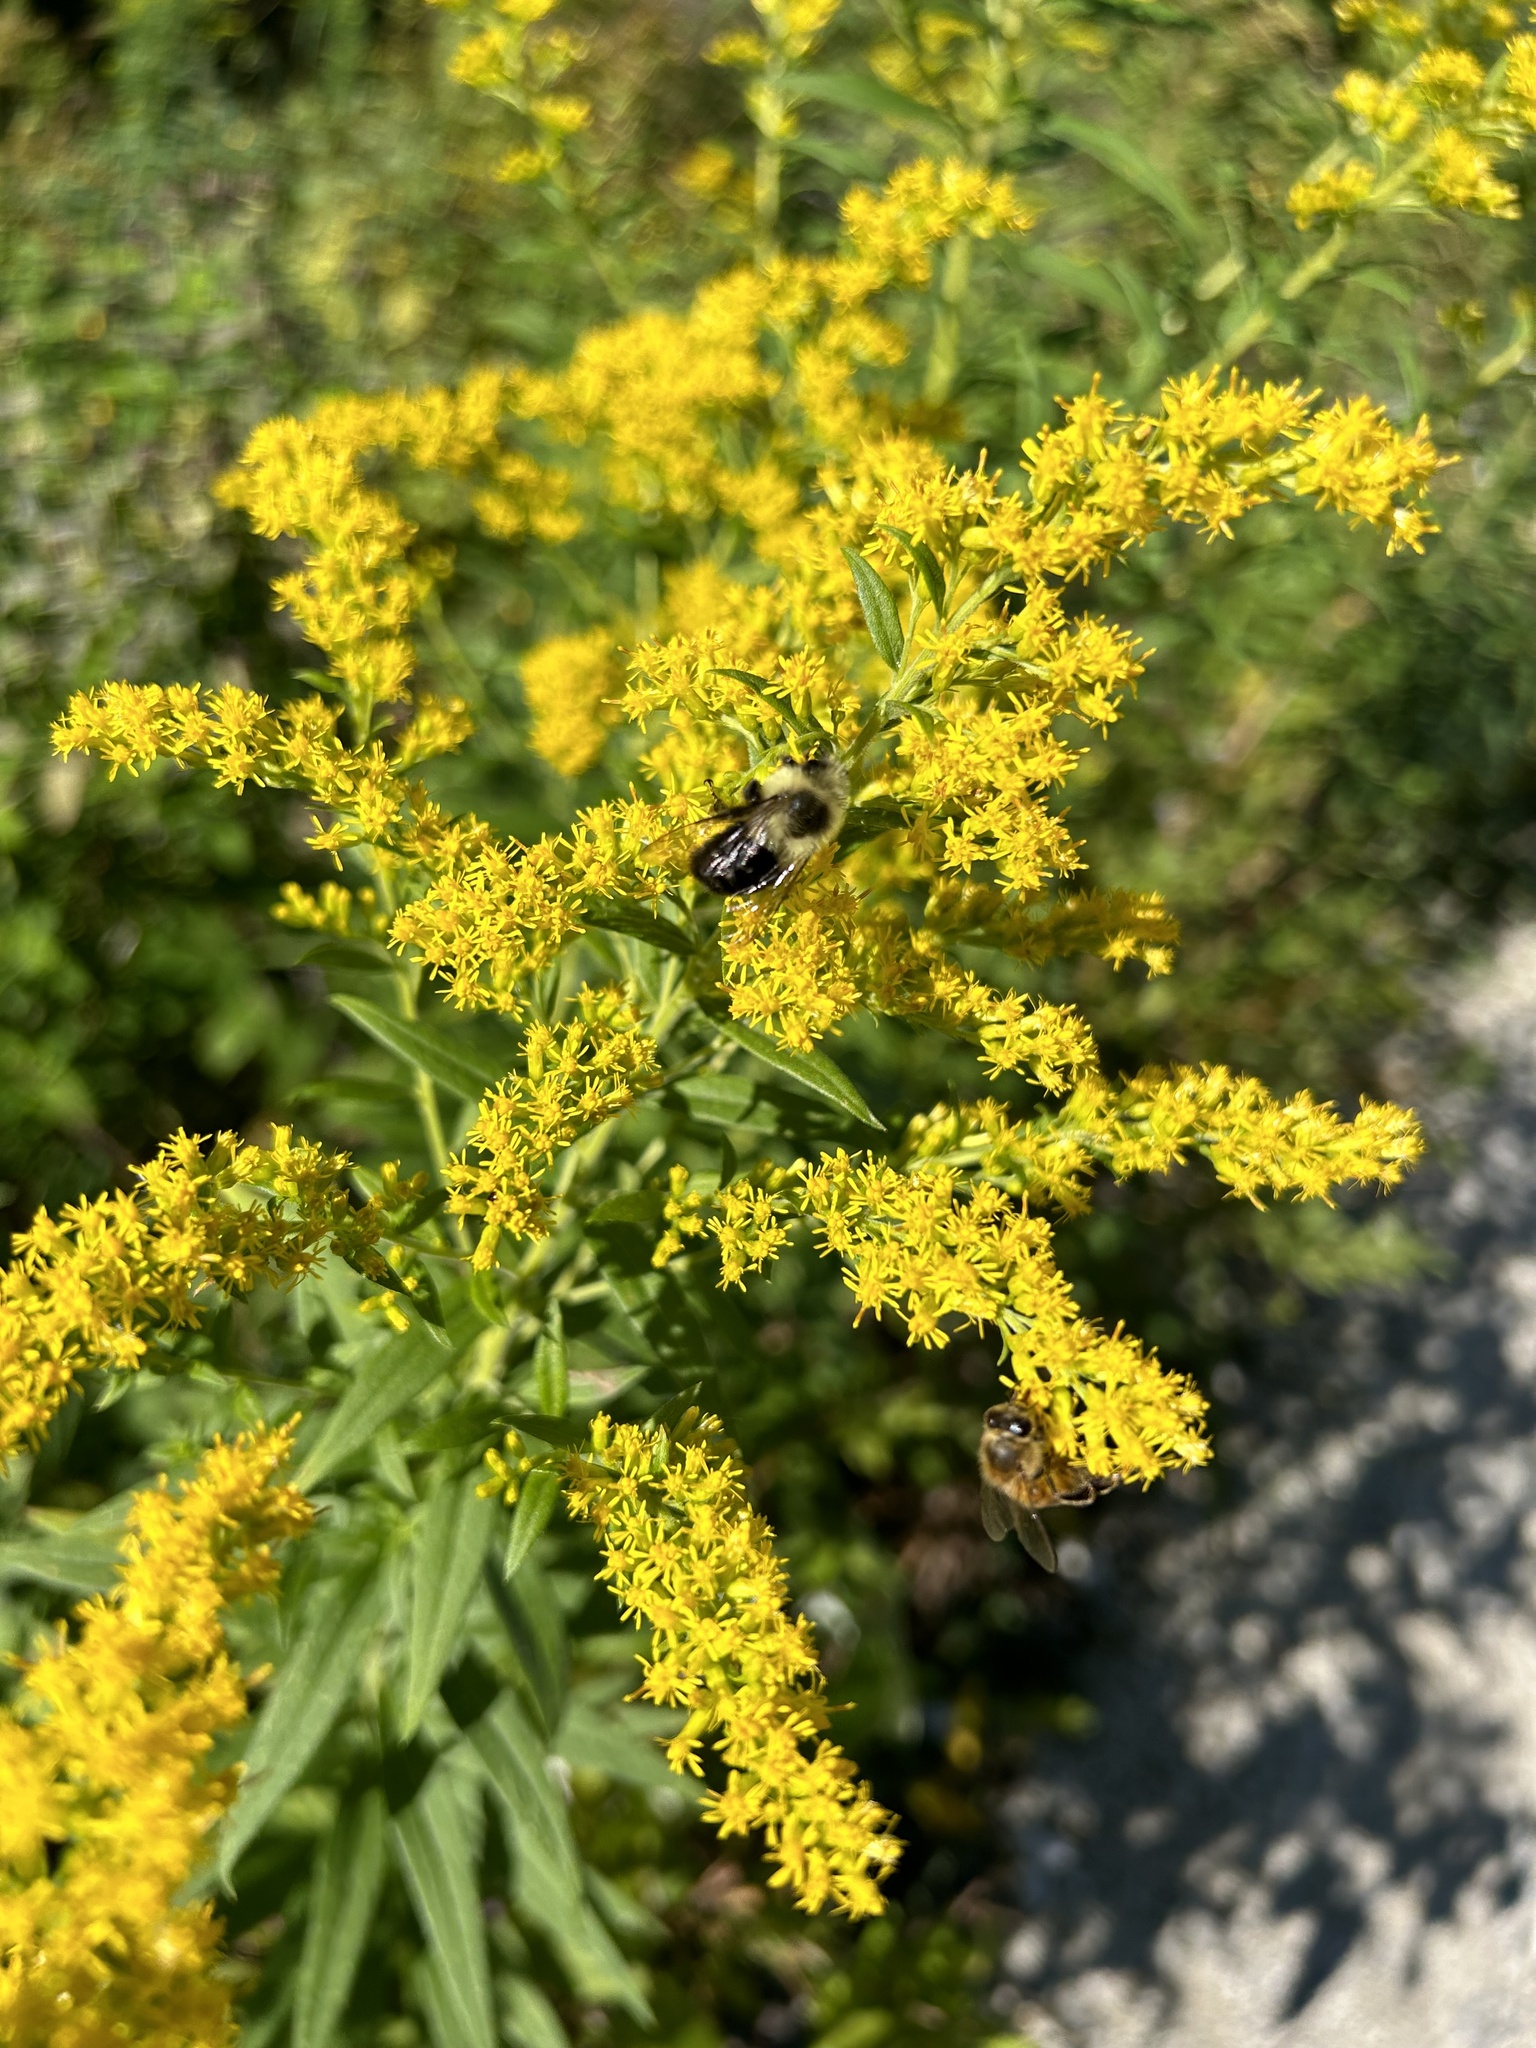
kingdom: Animalia
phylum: Arthropoda
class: Insecta
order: Hymenoptera
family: Apidae
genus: Bombus
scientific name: Bombus impatiens
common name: Common eastern bumble bee
